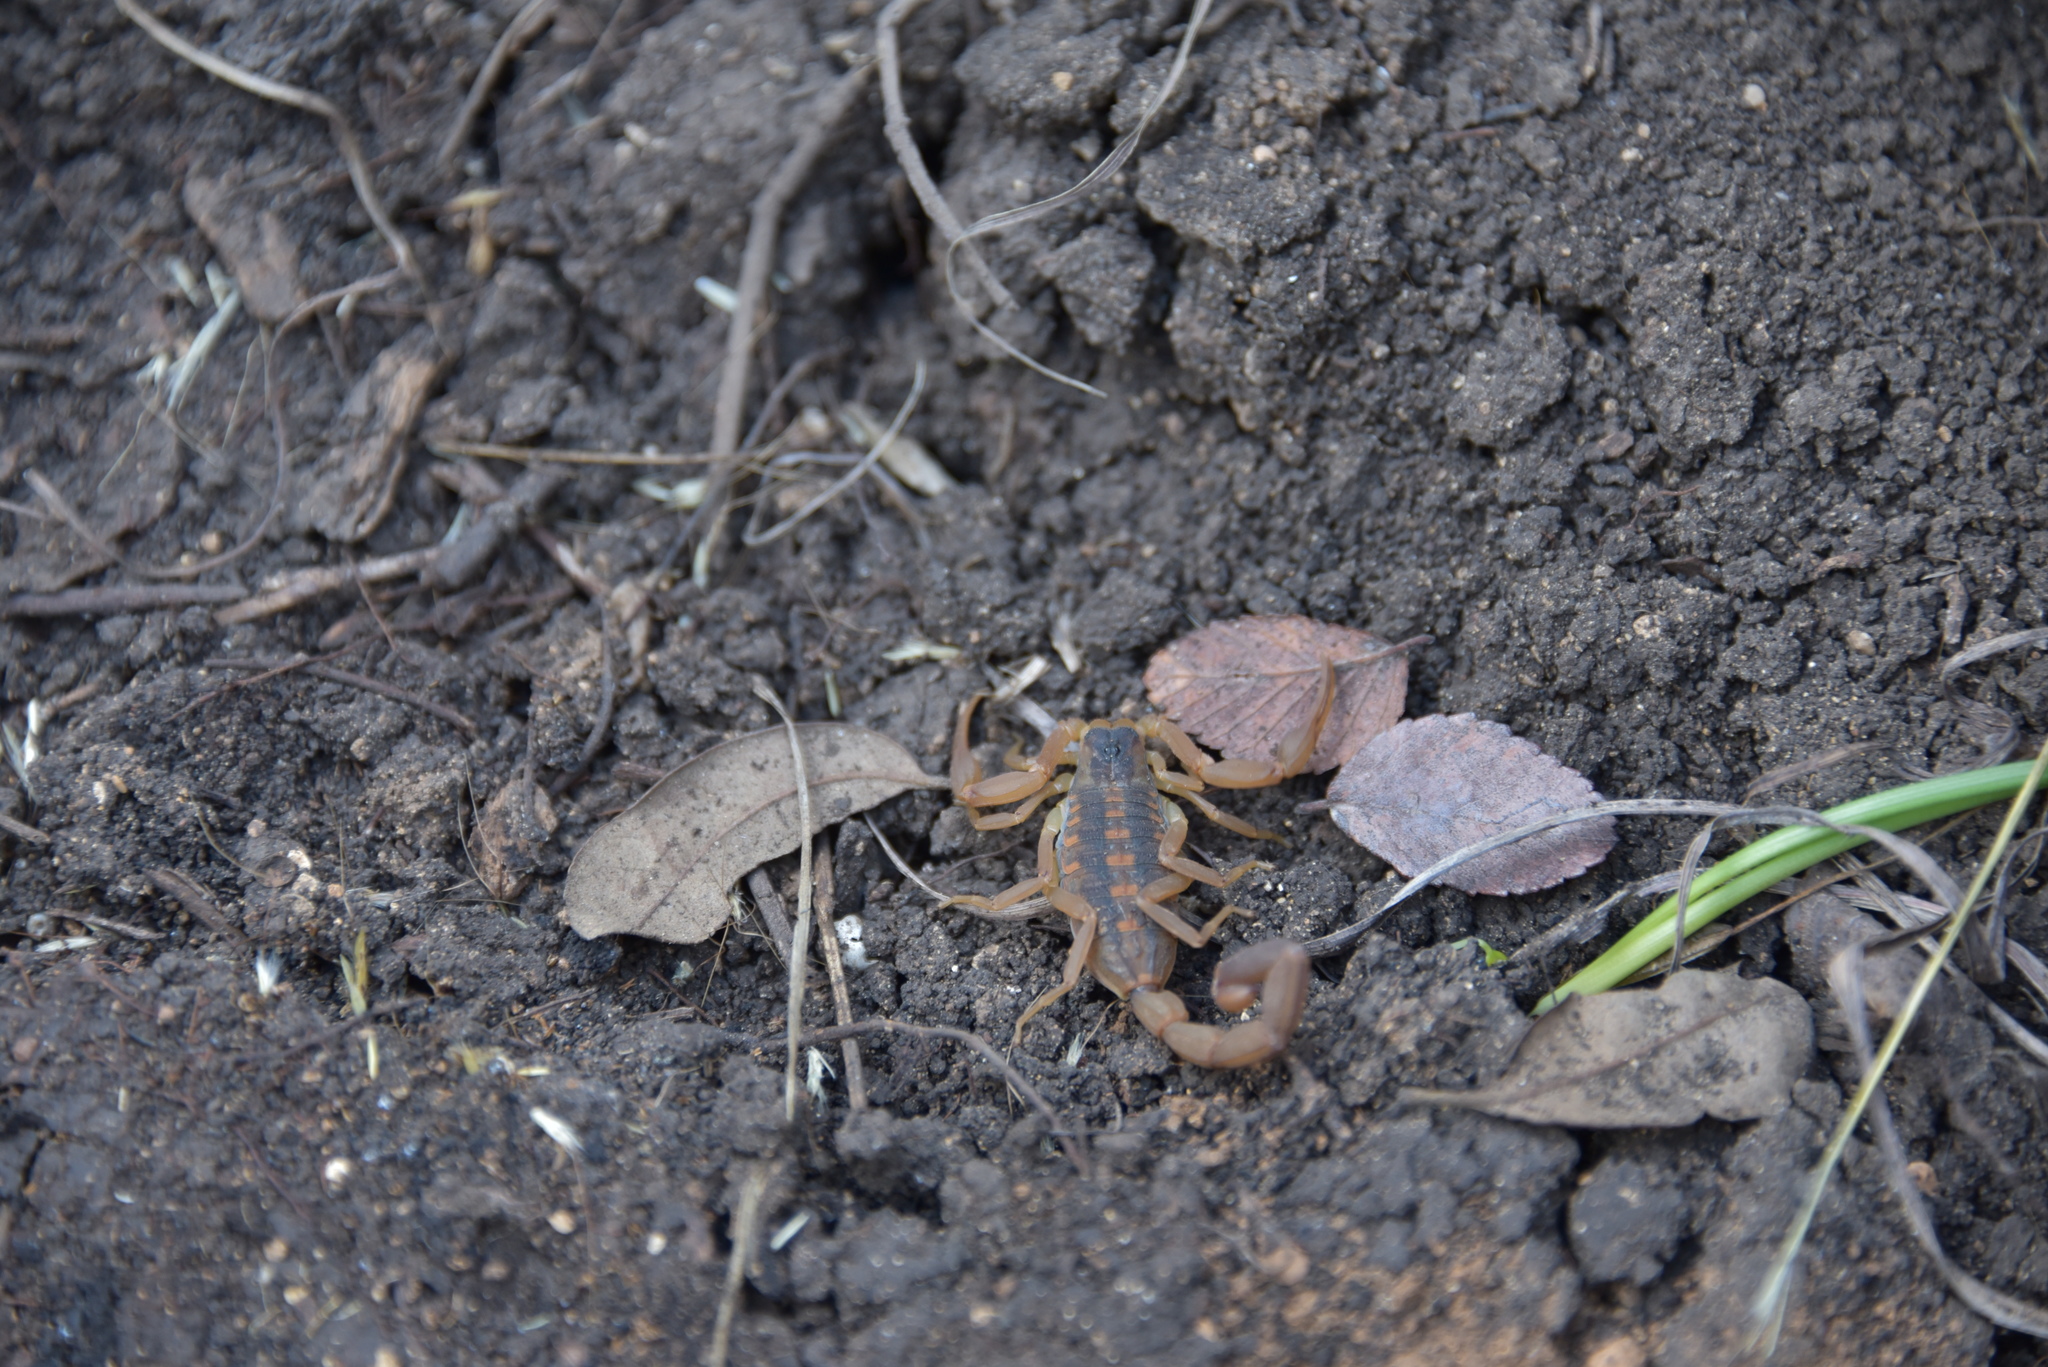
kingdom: Animalia
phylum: Arthropoda
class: Arachnida
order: Scorpiones
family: Buthidae
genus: Centruroides
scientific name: Centruroides vittatus
